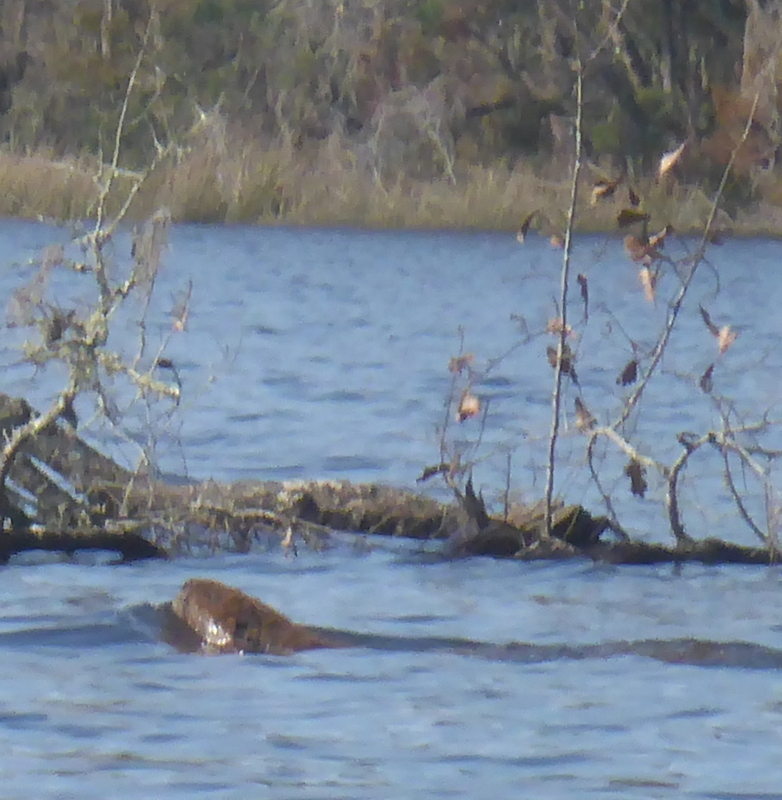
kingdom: Animalia
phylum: Chordata
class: Mammalia
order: Rodentia
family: Castoridae
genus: Castor
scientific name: Castor canadensis
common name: American beaver
